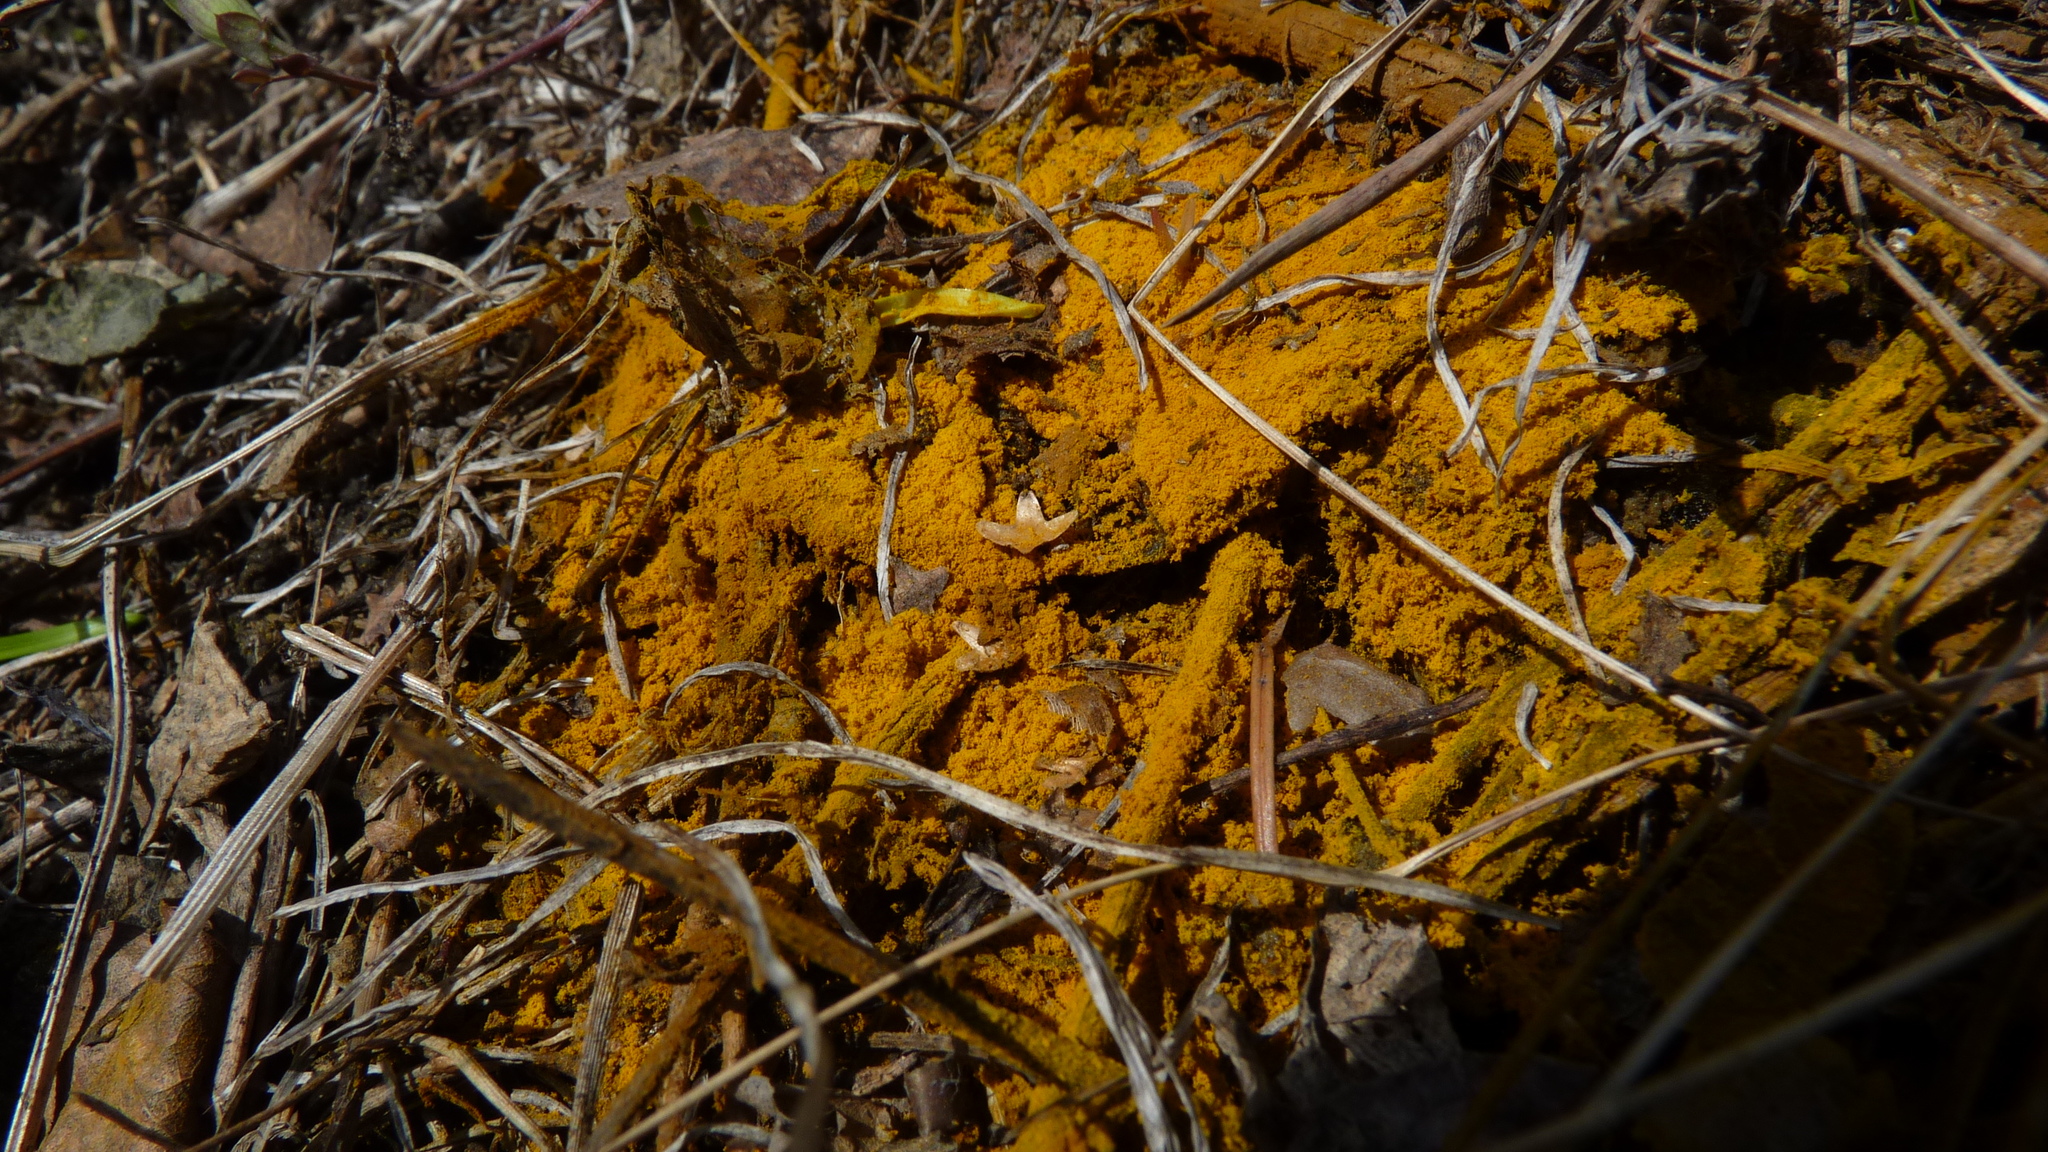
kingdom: Fungi
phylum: Ascomycota
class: Sordariomycetes
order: Hypocreales
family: Hypocreaceae
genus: Hypomyces
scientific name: Hypomyces chrysospermus
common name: Bolete mould
